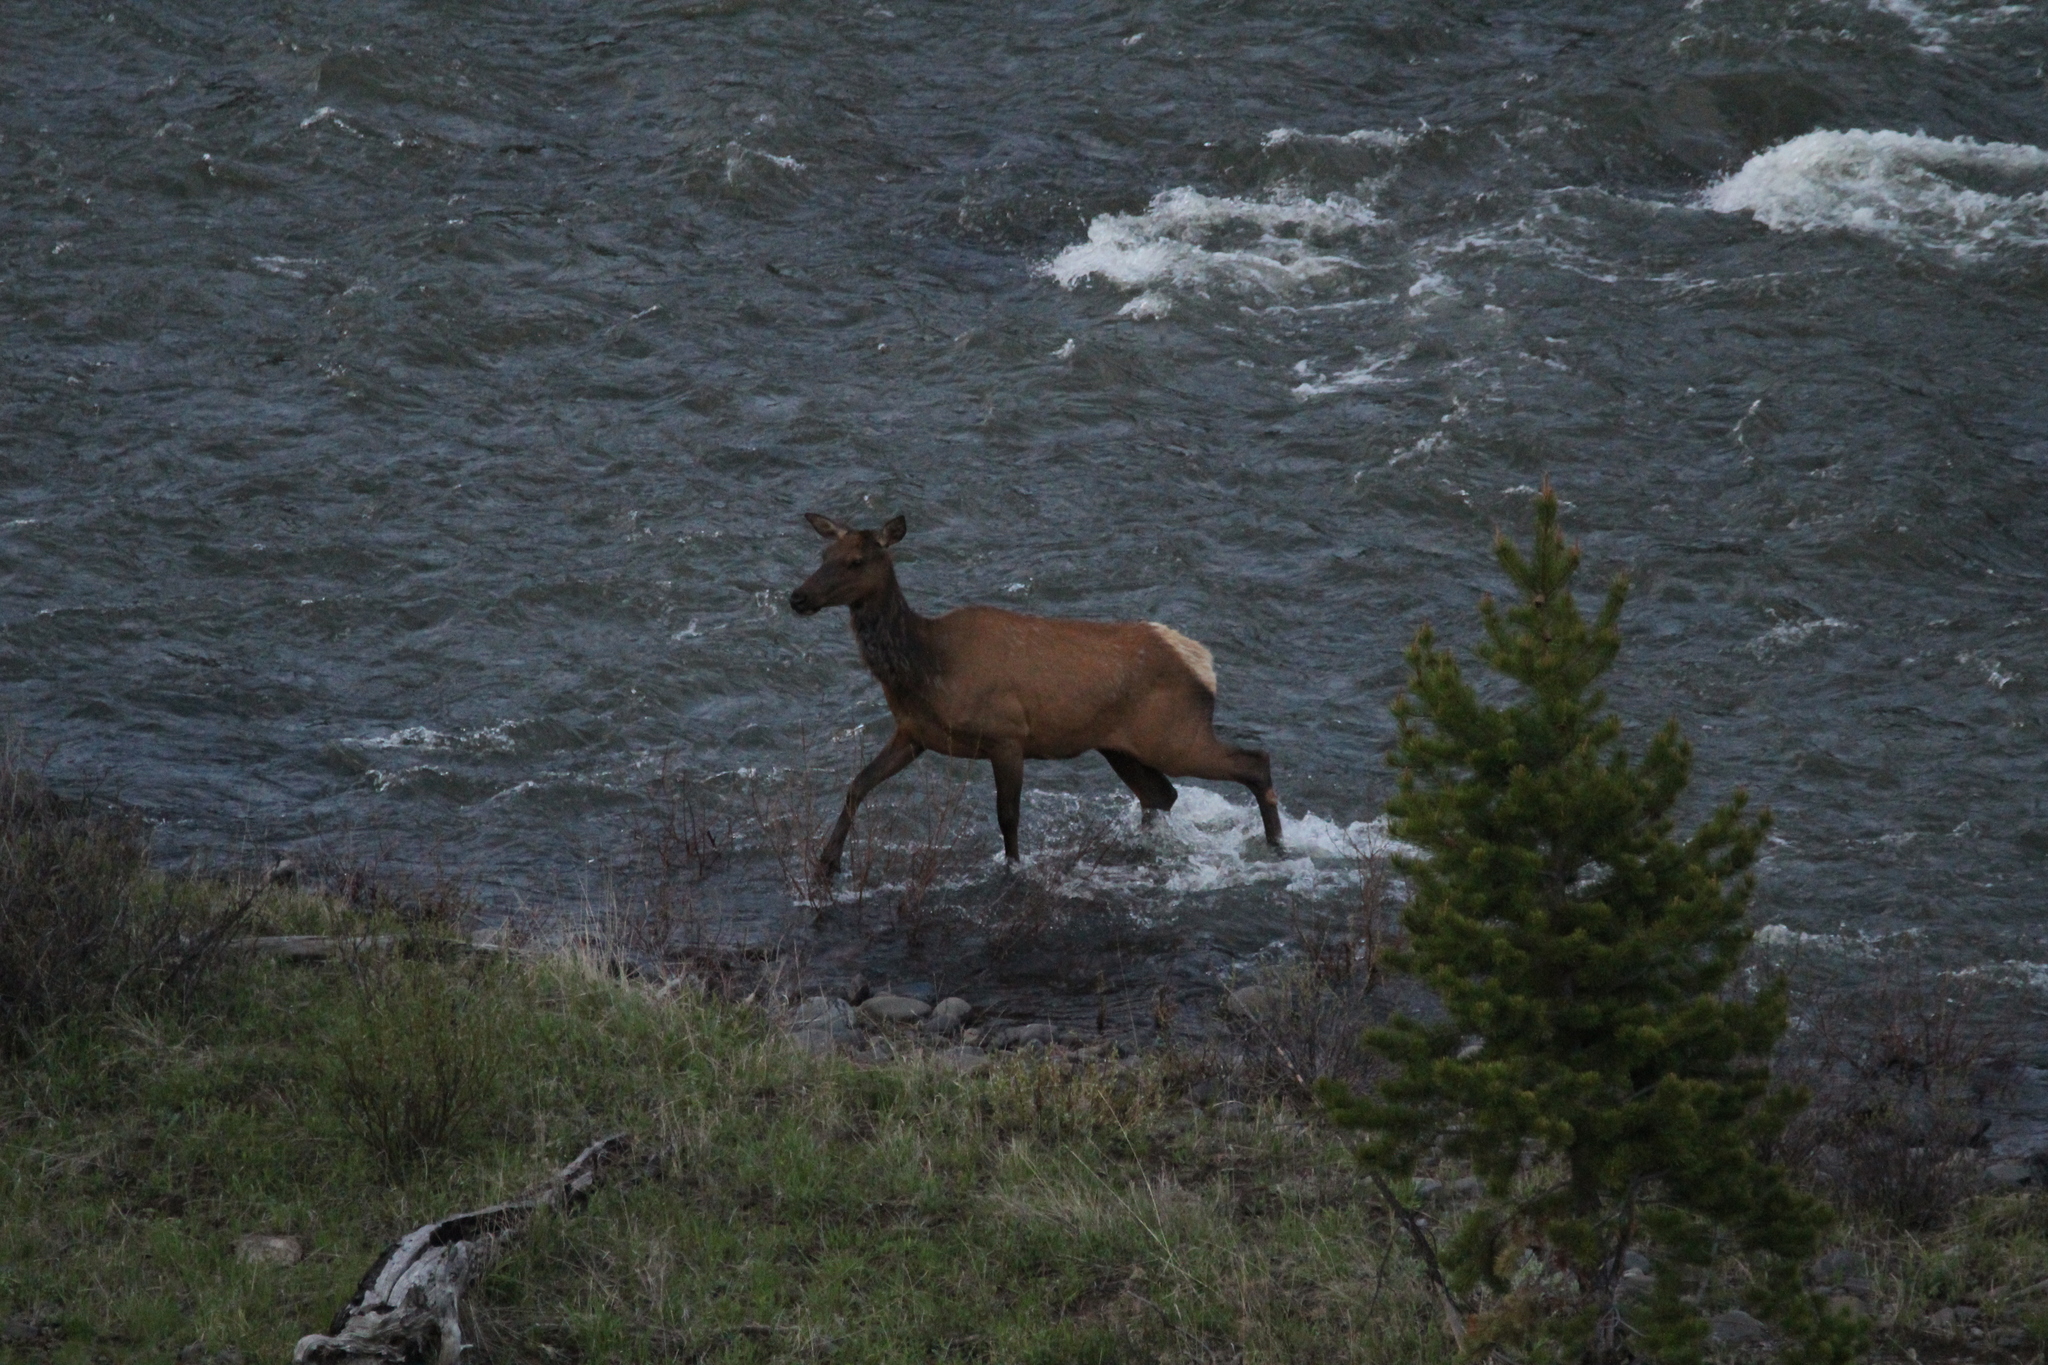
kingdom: Animalia
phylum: Chordata
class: Mammalia
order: Artiodactyla
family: Cervidae
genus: Cervus
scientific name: Cervus elaphus
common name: Red deer
